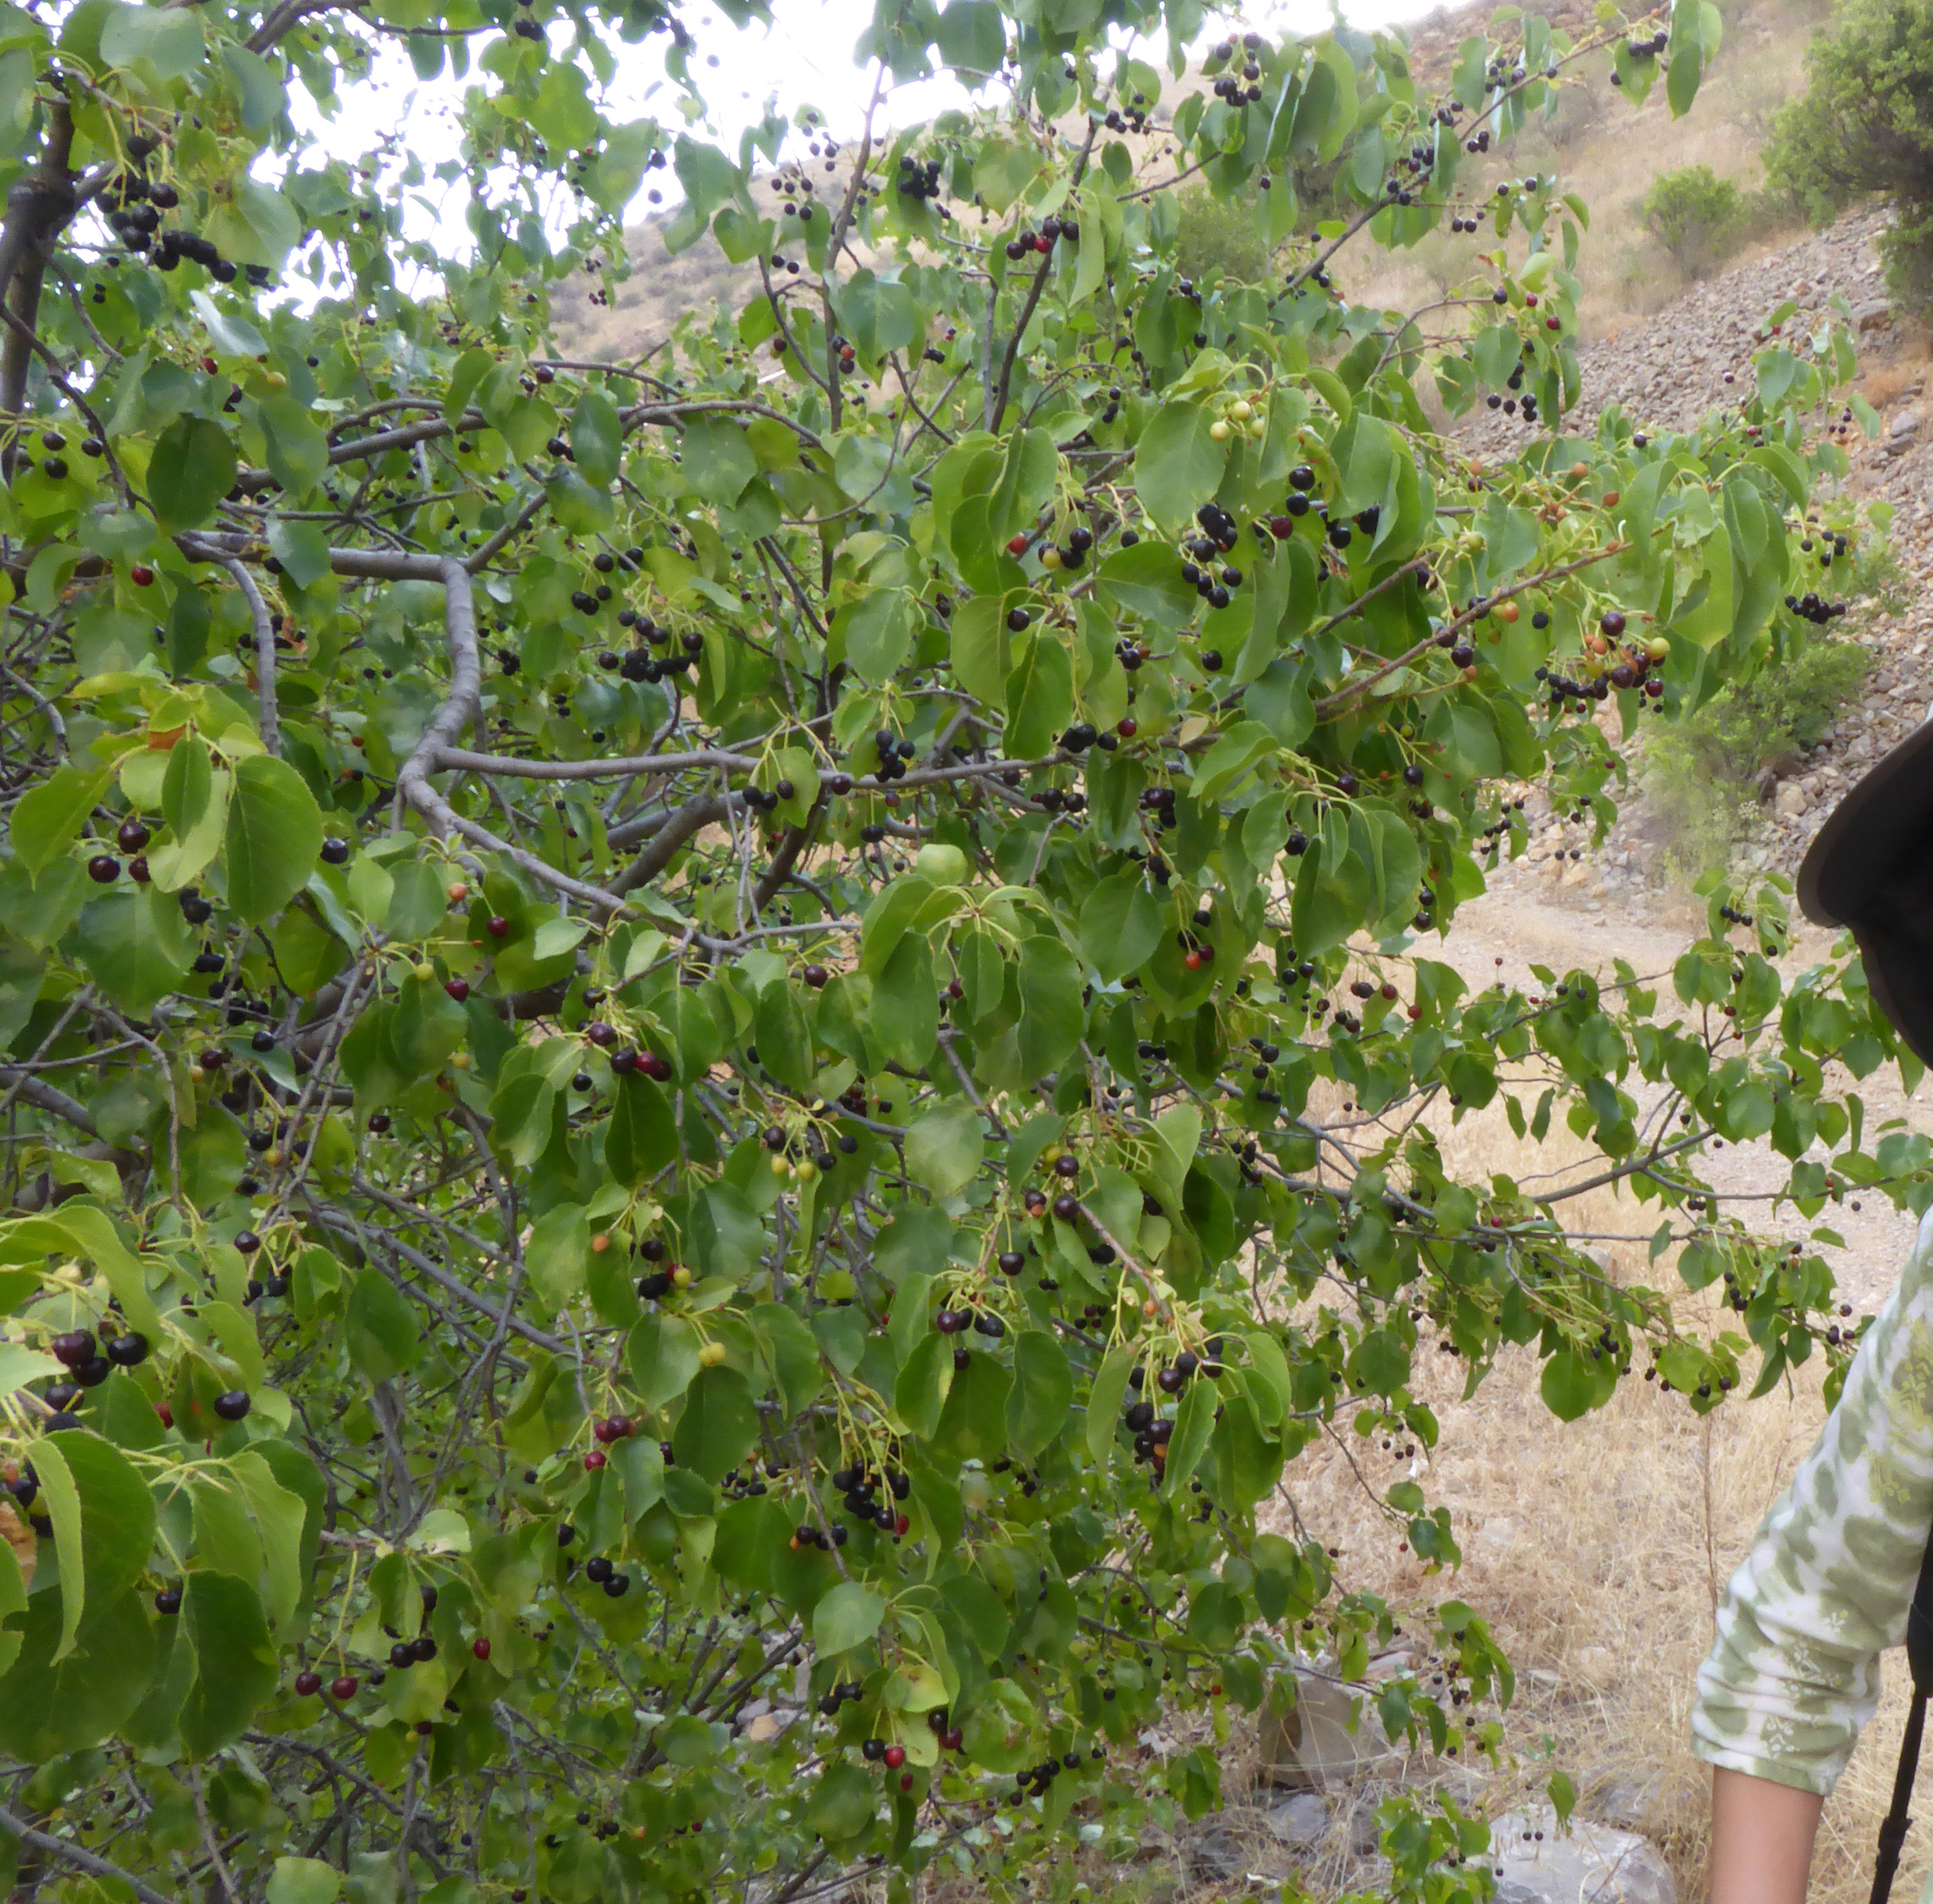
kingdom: Plantae
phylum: Tracheophyta
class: Magnoliopsida
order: Rosales
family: Rosaceae
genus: Prunus
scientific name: Prunus mahaleb
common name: Mahaleb cherry
